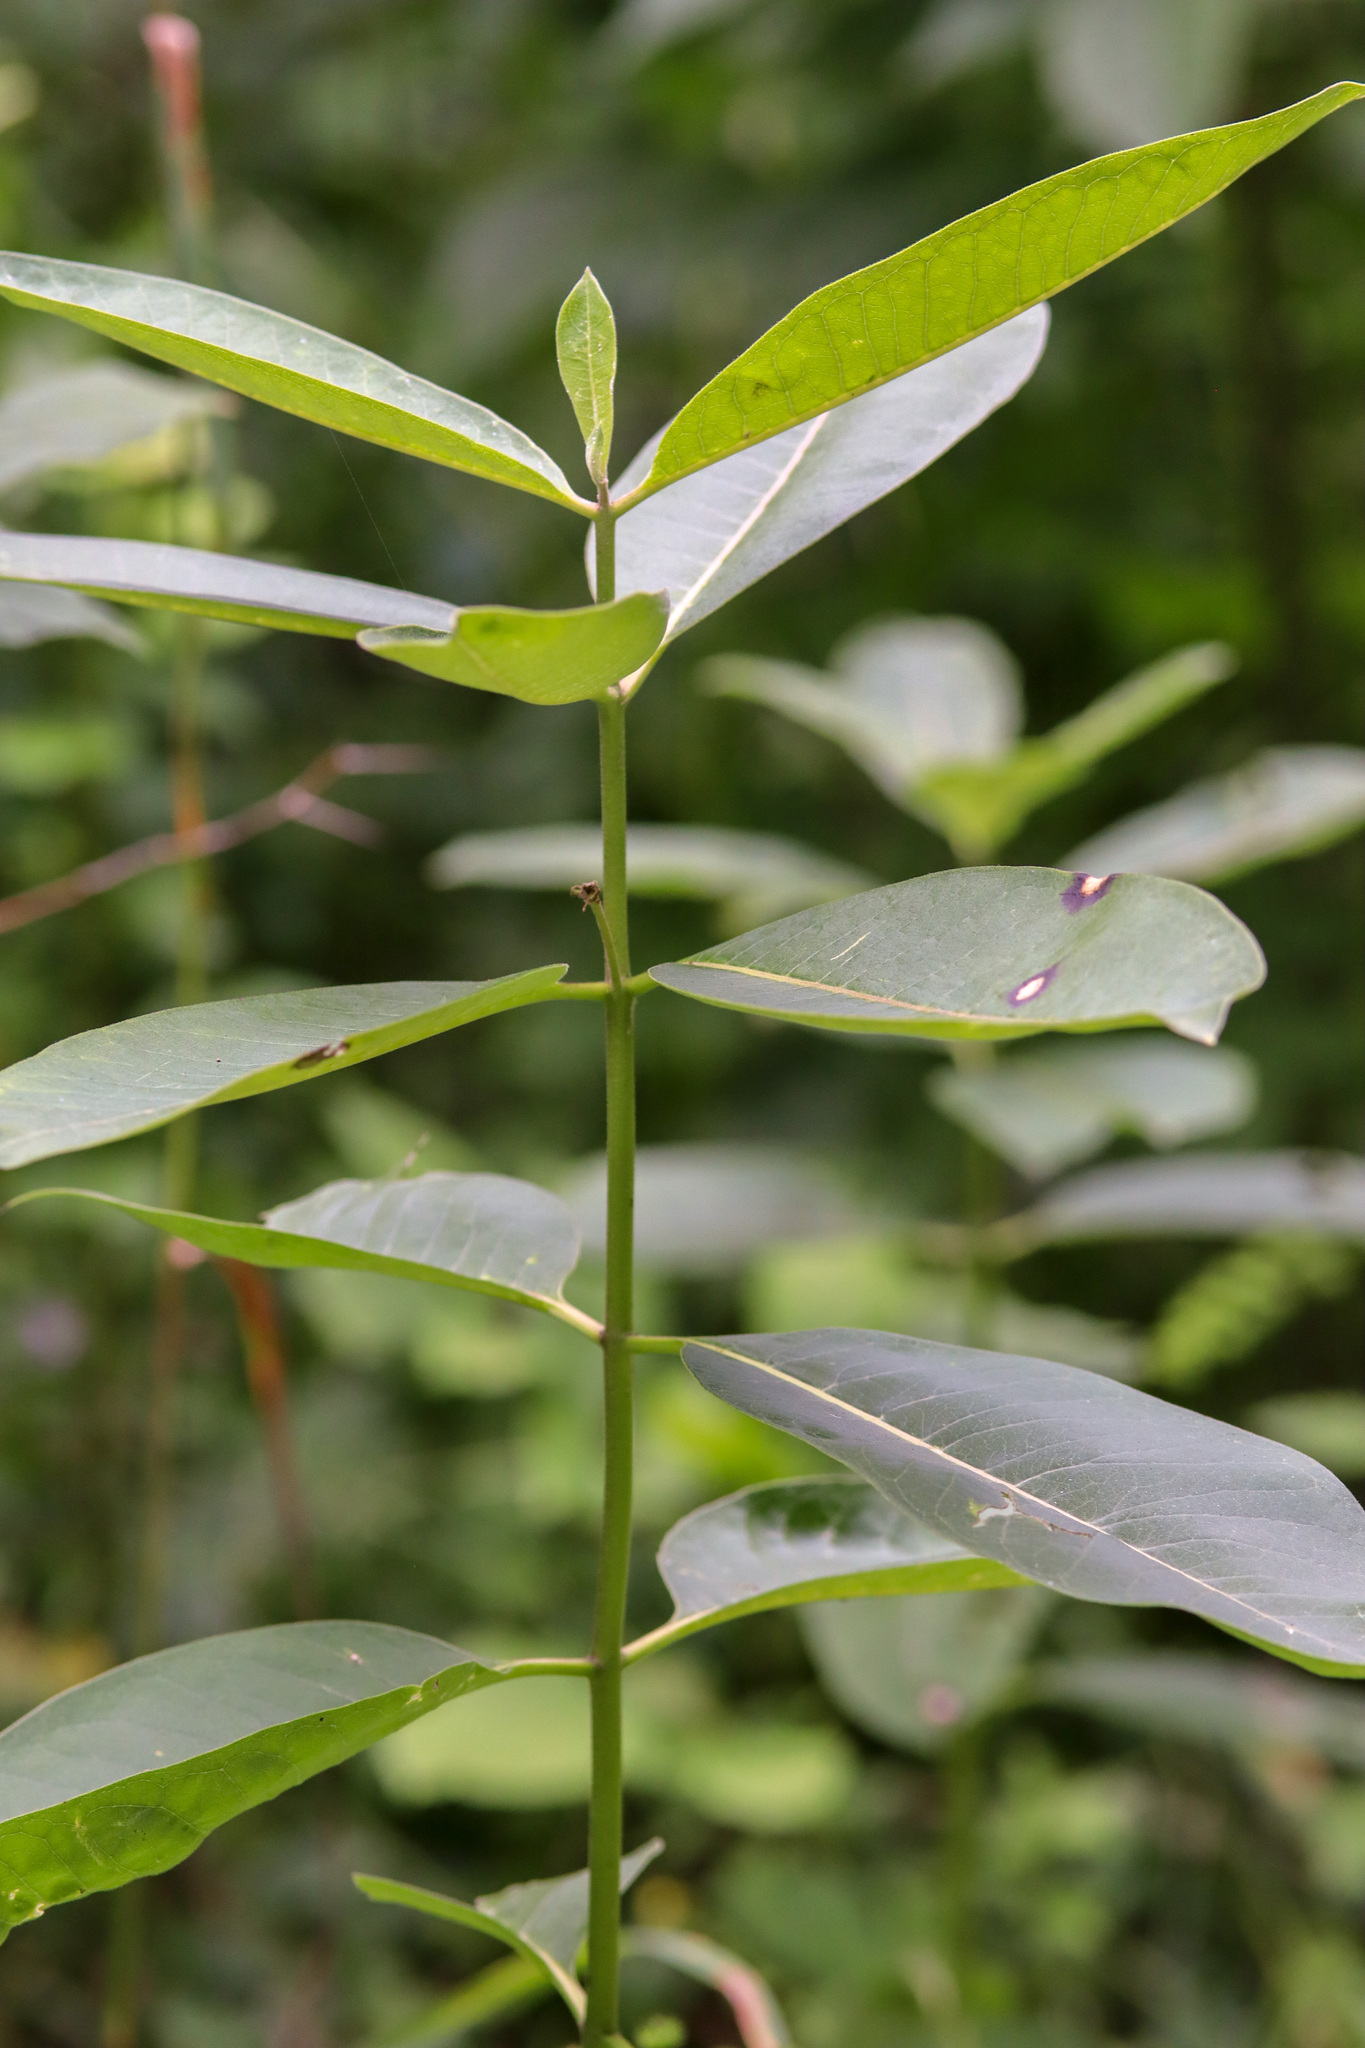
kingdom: Plantae
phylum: Tracheophyta
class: Magnoliopsida
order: Gentianales
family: Apocynaceae
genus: Asclepias
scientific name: Asclepias syriaca
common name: Common milkweed
